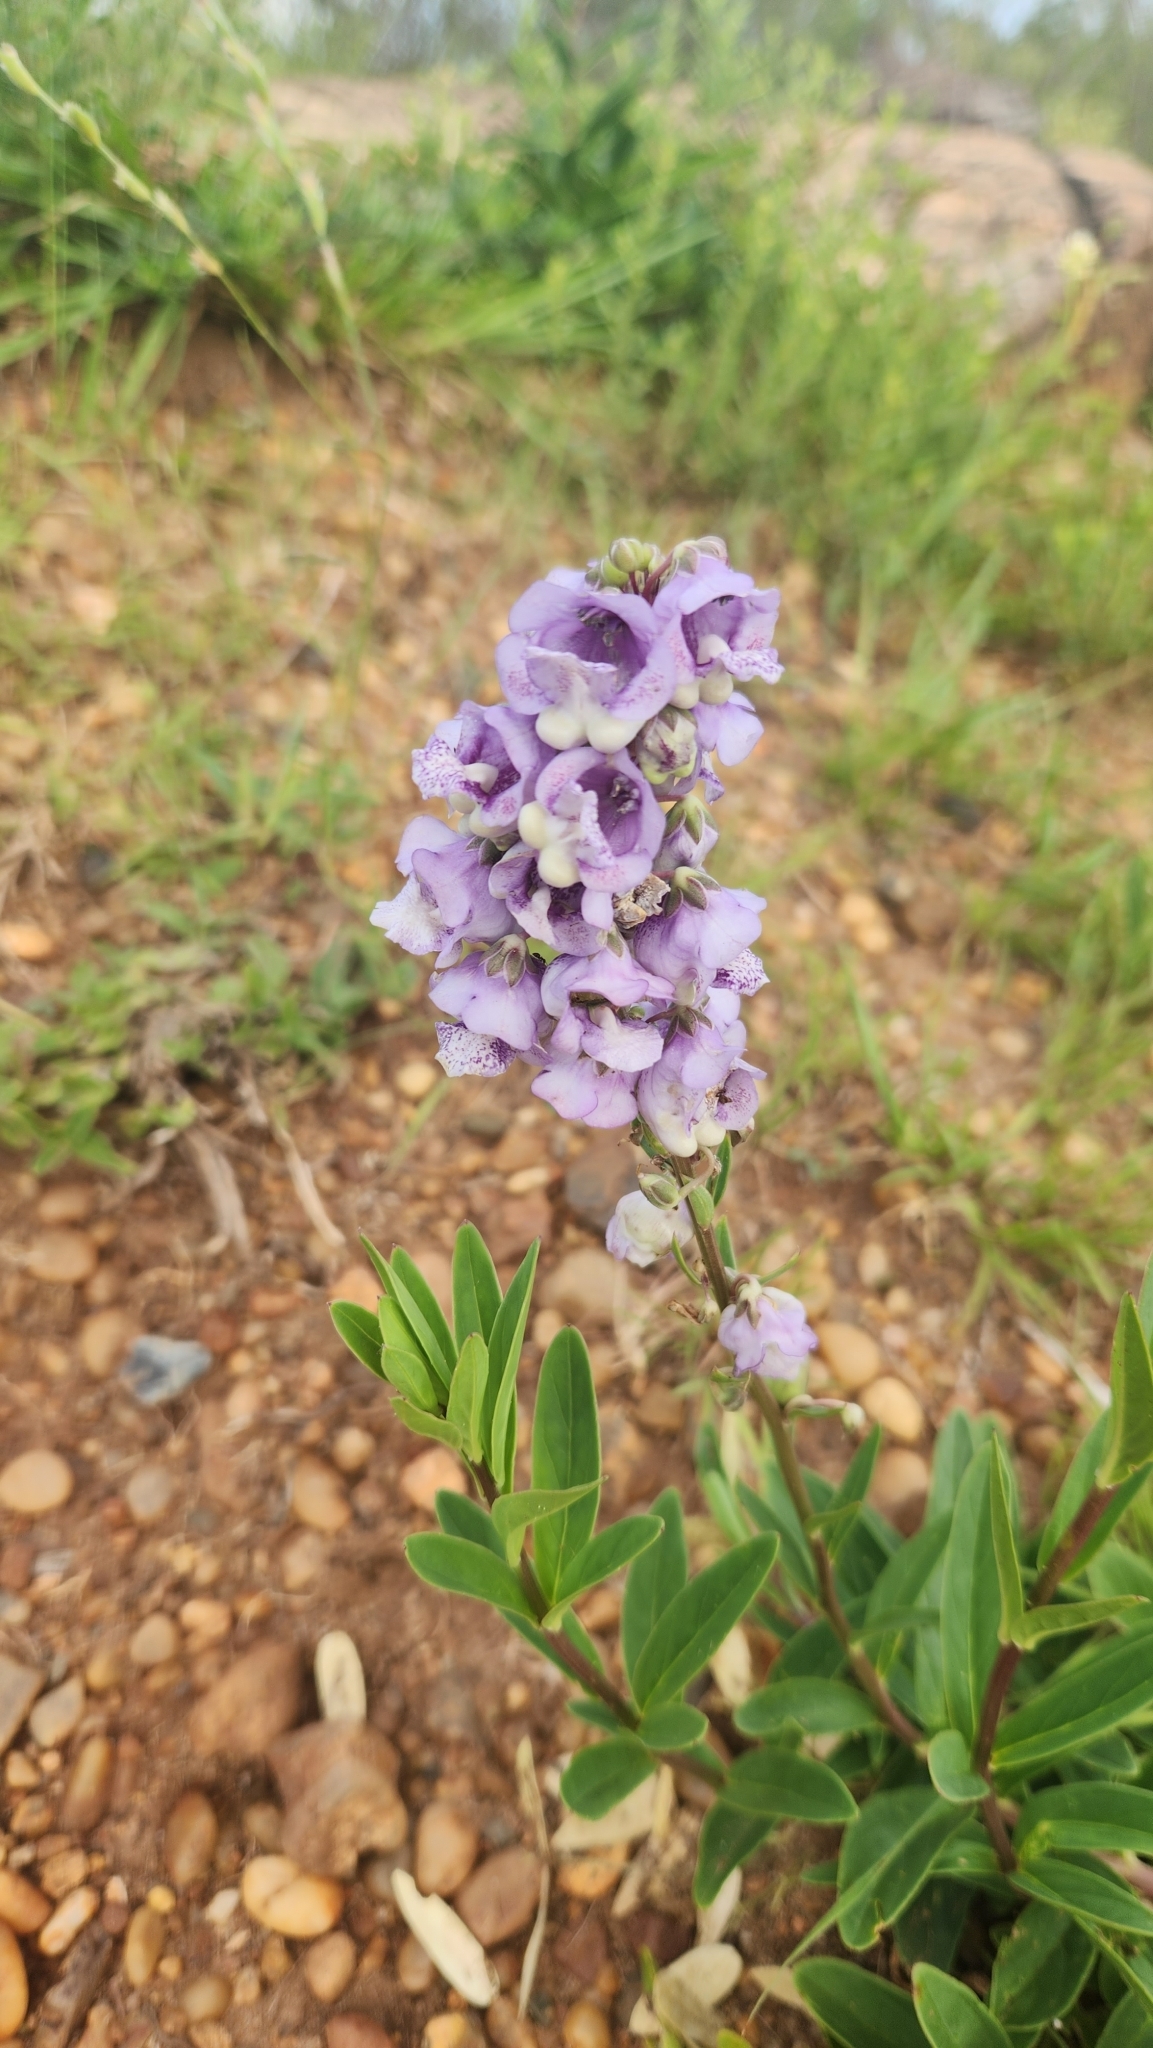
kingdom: Plantae
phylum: Tracheophyta
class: Magnoliopsida
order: Lamiales
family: Plantaginaceae
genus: Angelonia
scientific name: Angelonia integerrima
